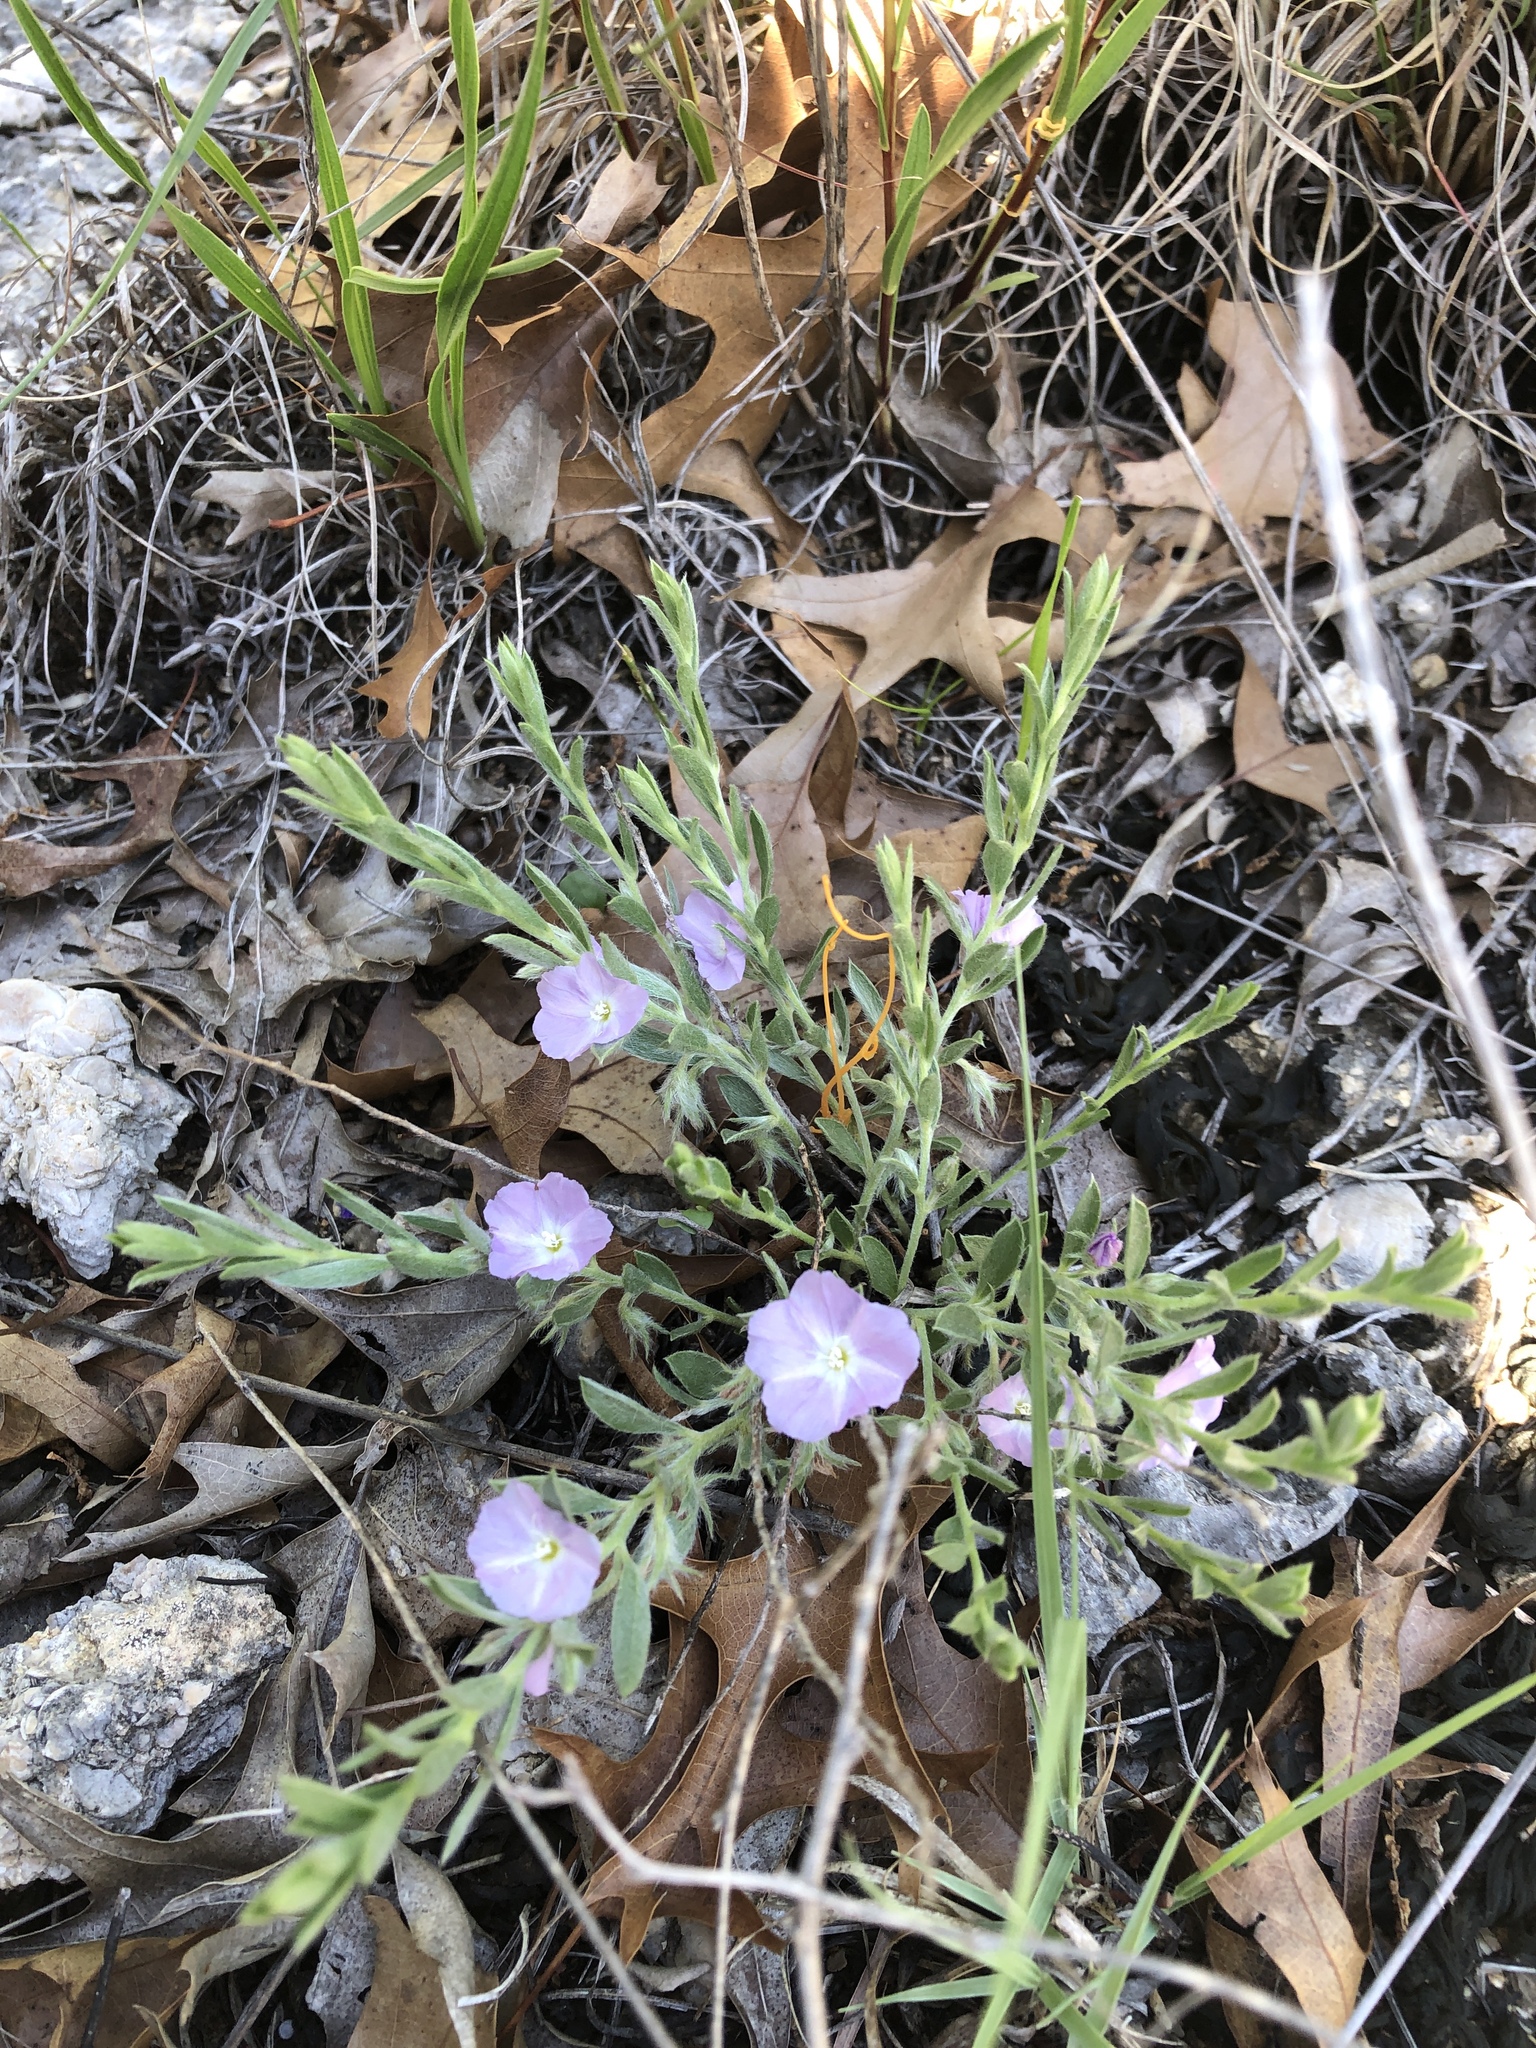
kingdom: Plantae
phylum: Tracheophyta
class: Magnoliopsida
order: Solanales
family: Convolvulaceae
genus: Evolvulus
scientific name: Evolvulus nuttallianus
